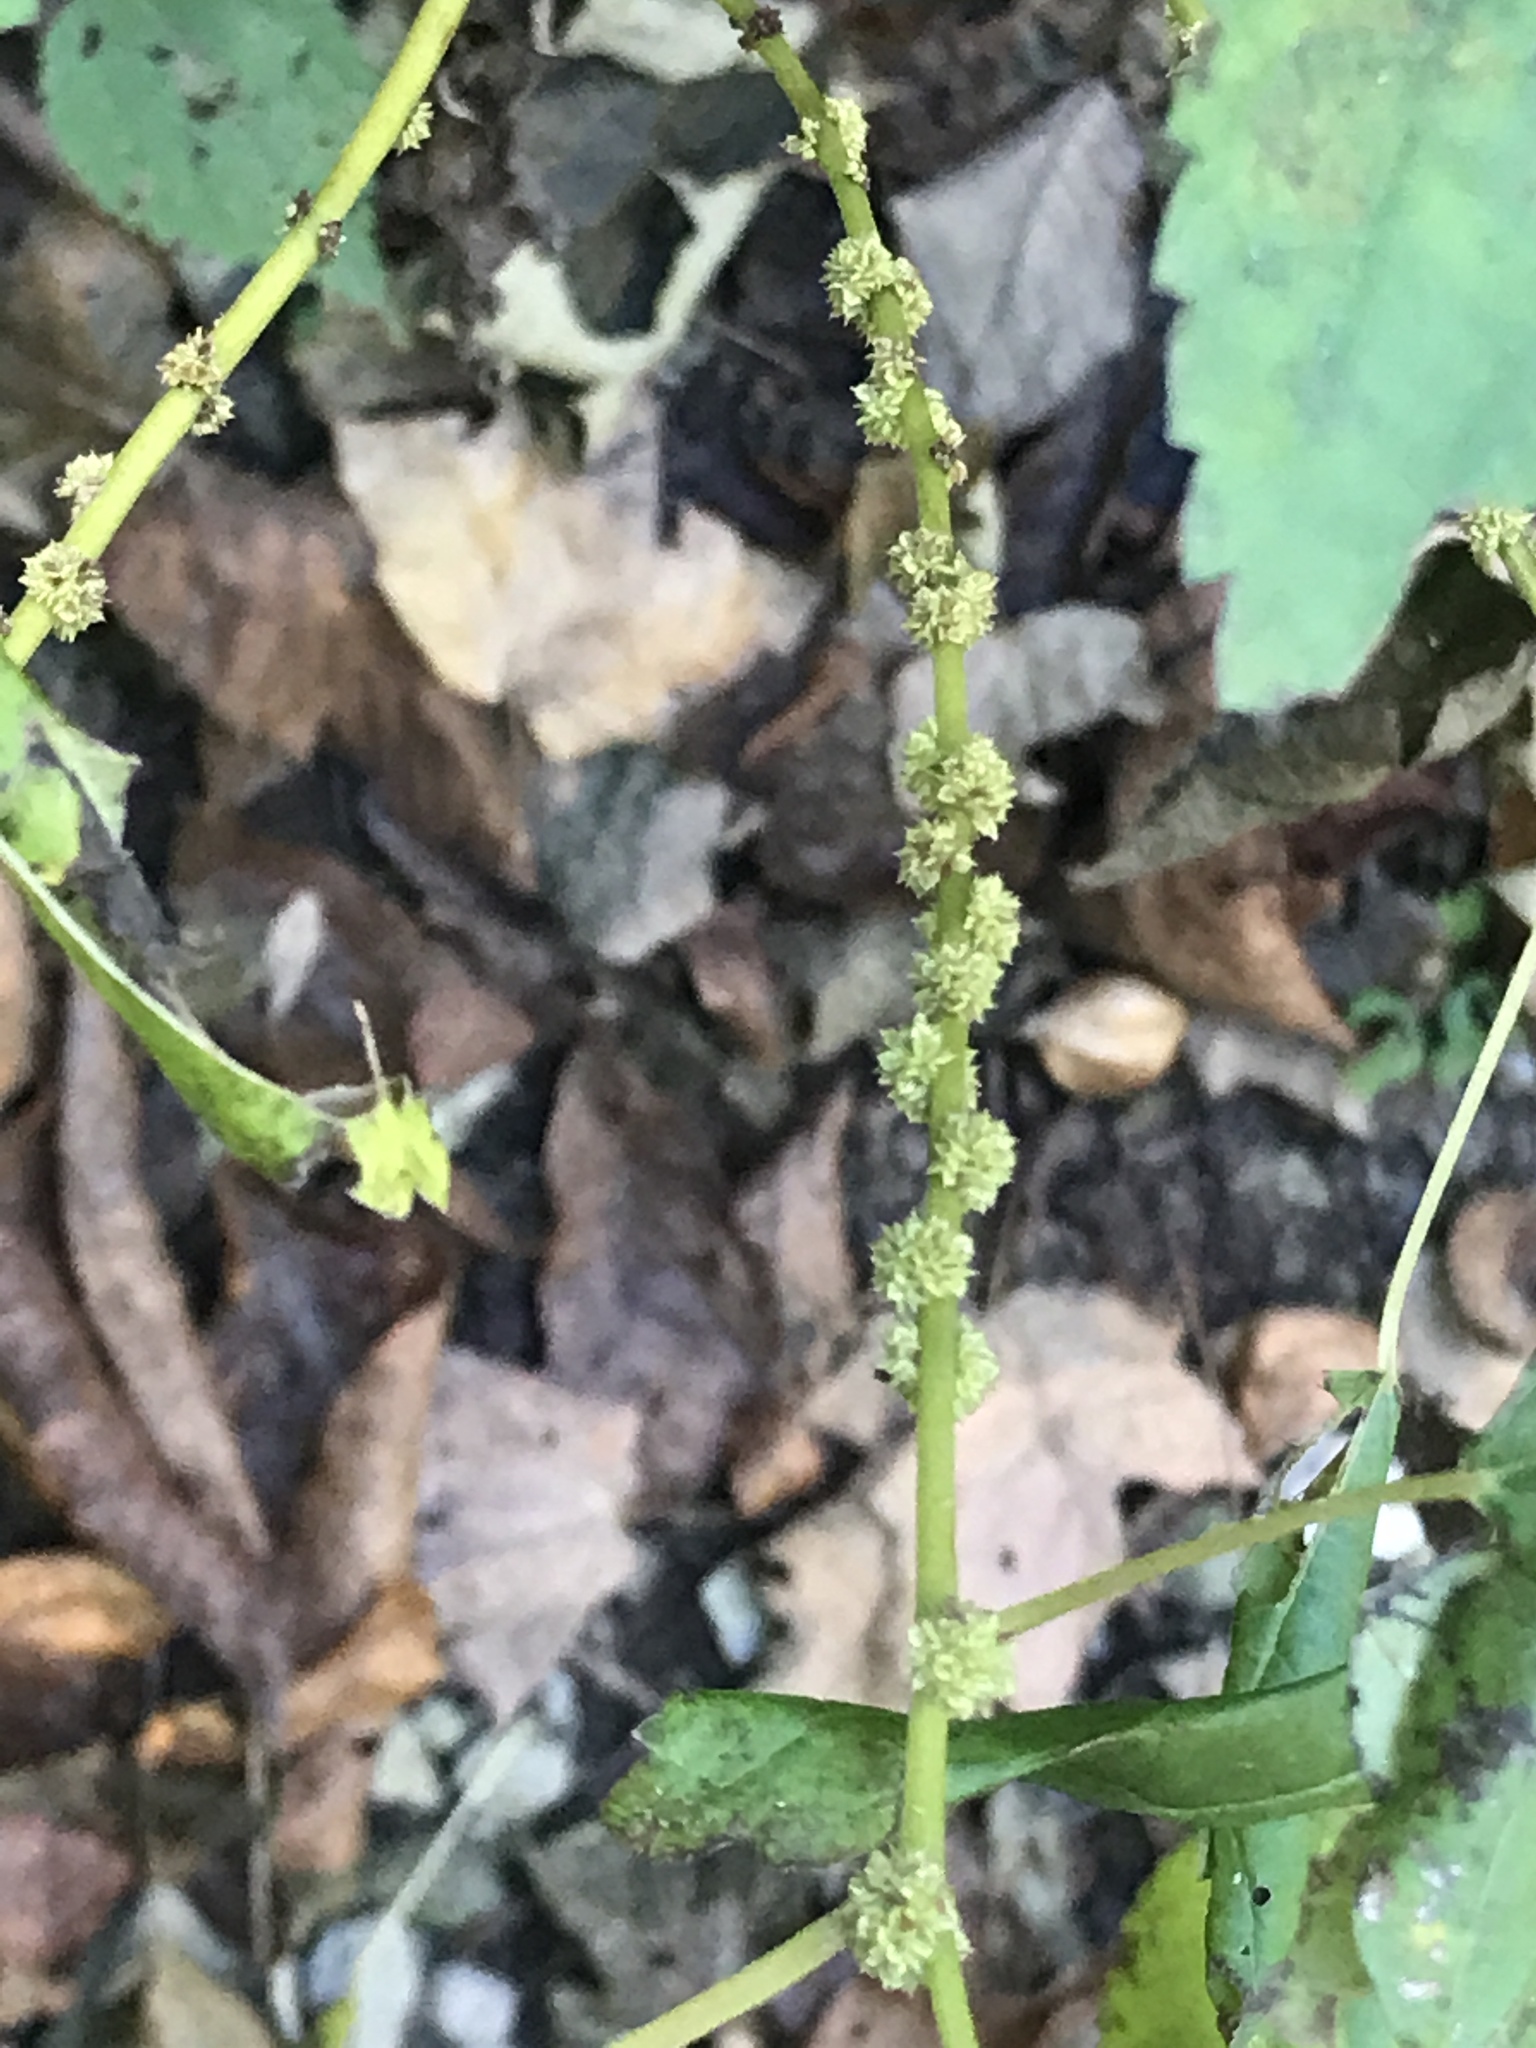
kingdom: Plantae
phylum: Tracheophyta
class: Magnoliopsida
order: Rosales
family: Urticaceae
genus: Boehmeria
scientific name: Boehmeria cylindrica
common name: Bog-hemp
